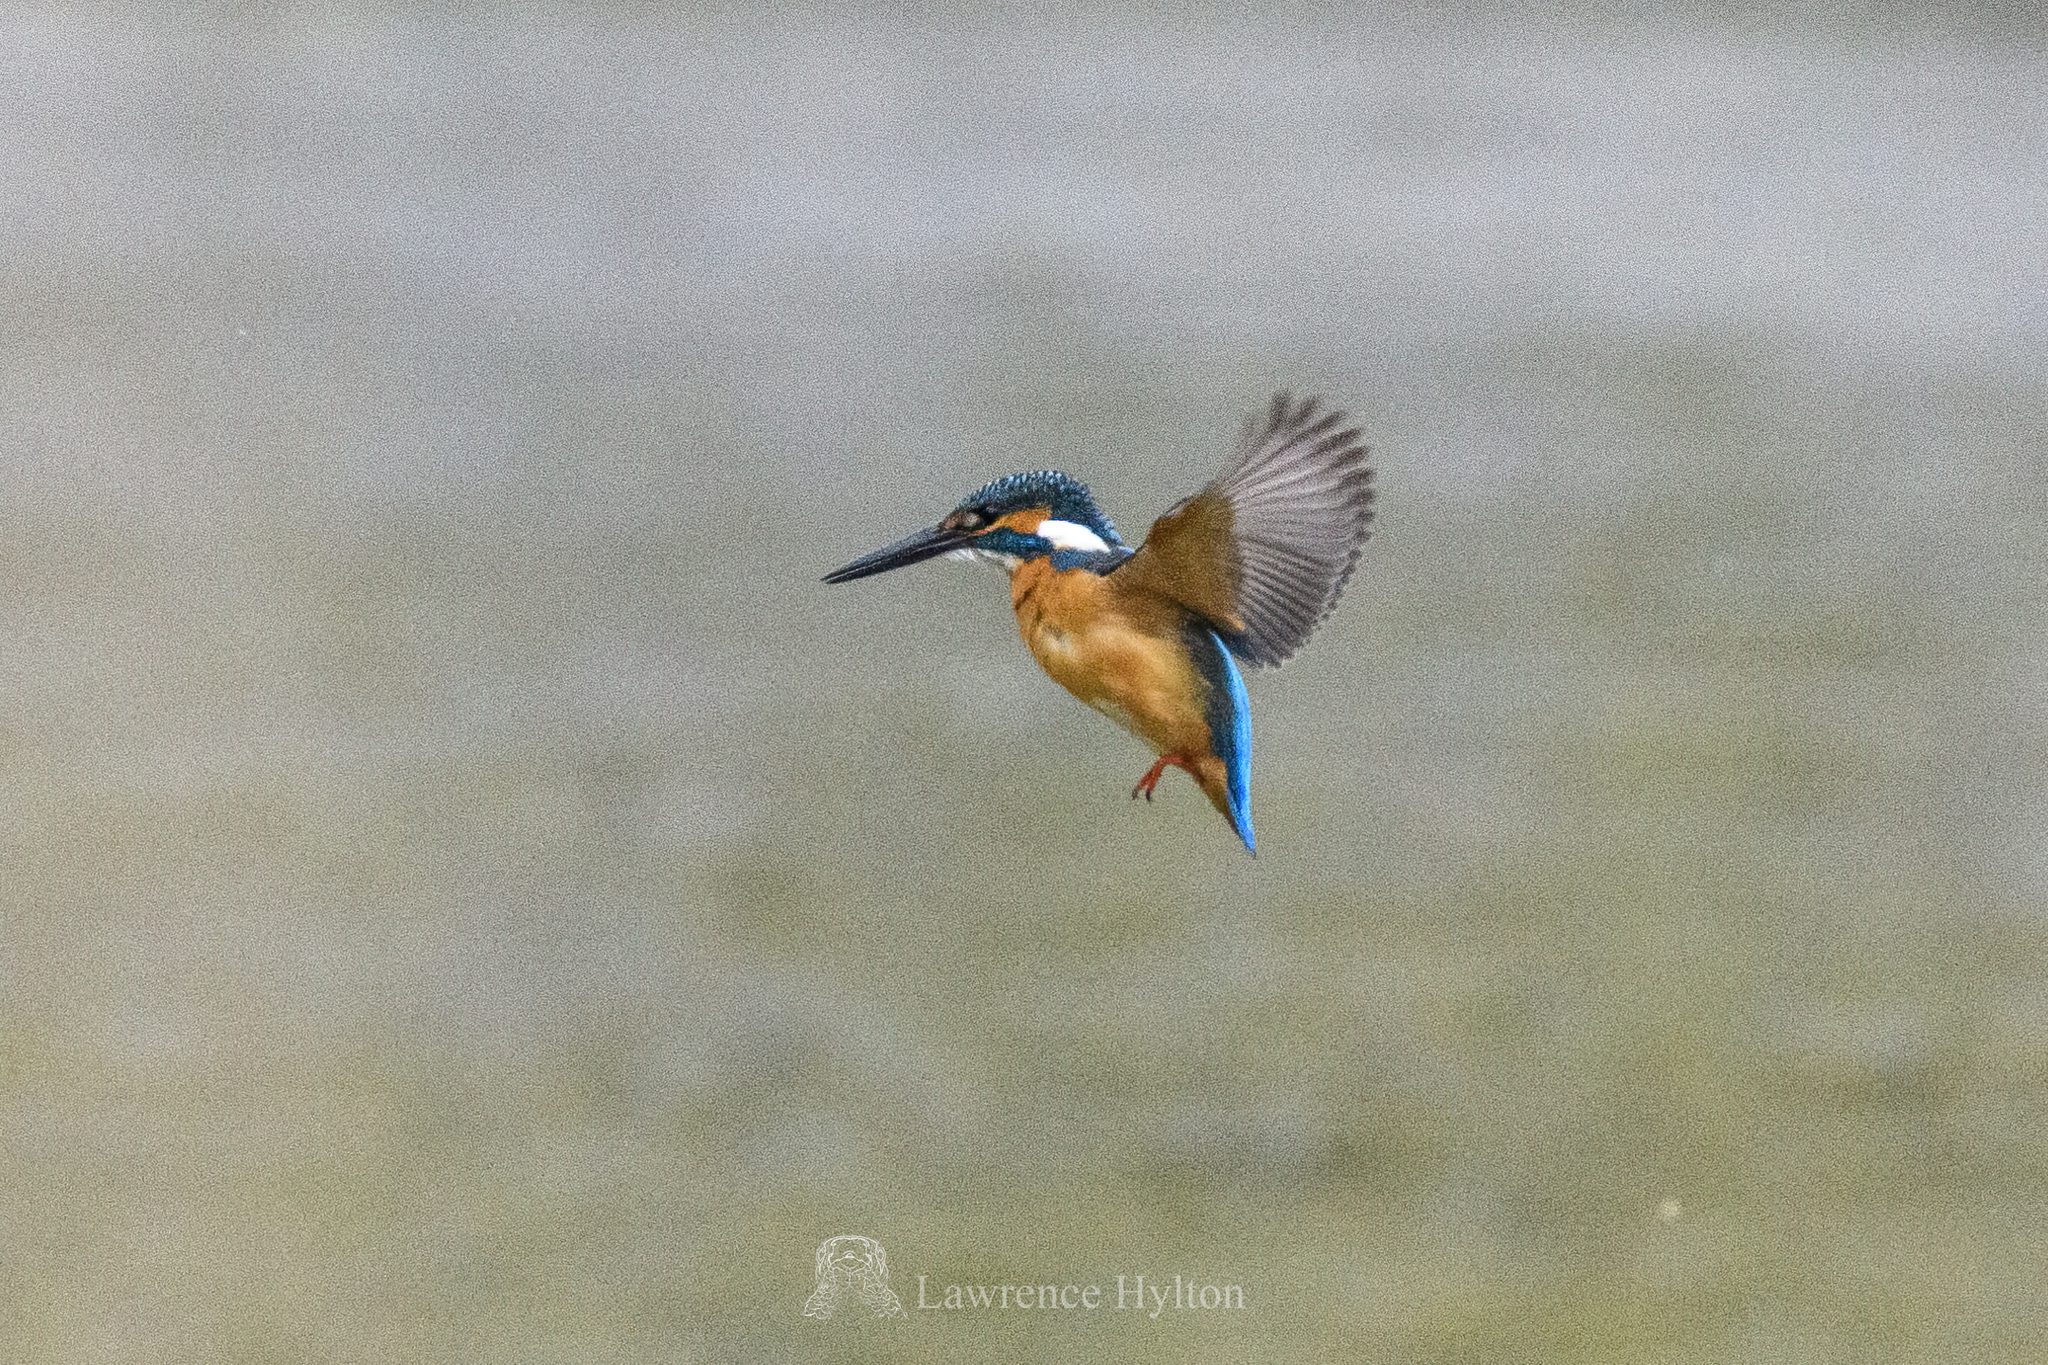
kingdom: Animalia
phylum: Chordata
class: Aves
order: Coraciiformes
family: Alcedinidae
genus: Alcedo
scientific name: Alcedo atthis
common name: Common kingfisher
